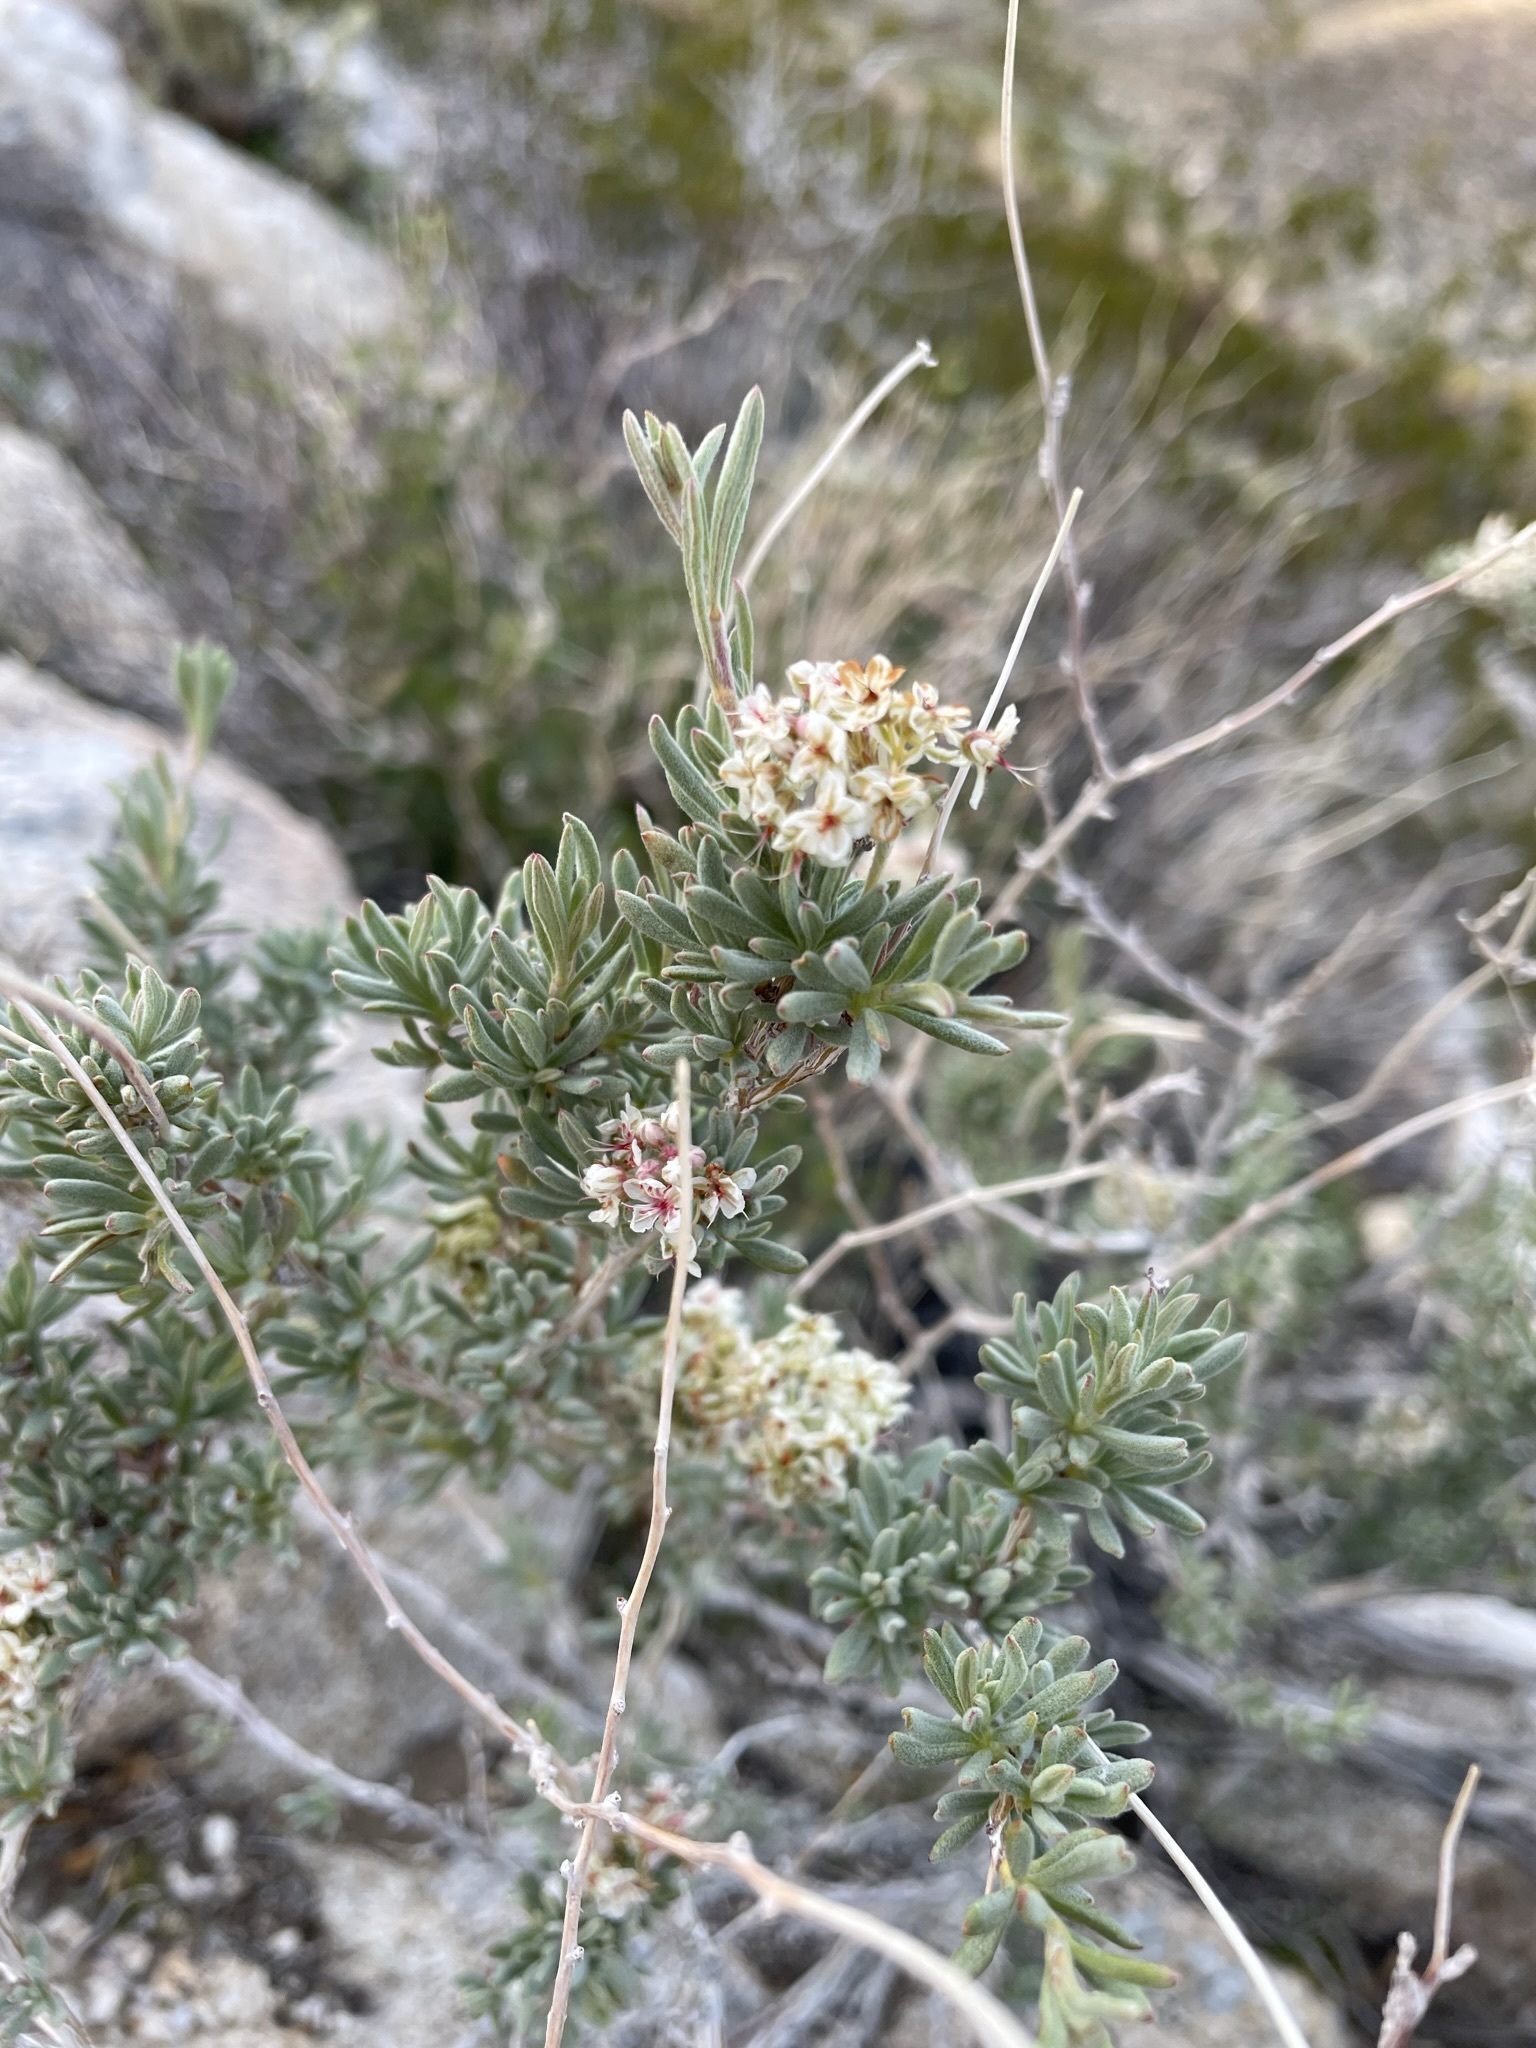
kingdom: Plantae
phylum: Tracheophyta
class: Magnoliopsida
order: Caryophyllales
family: Polygonaceae
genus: Eriogonum
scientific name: Eriogonum fasciculatum
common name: California wild buckwheat
